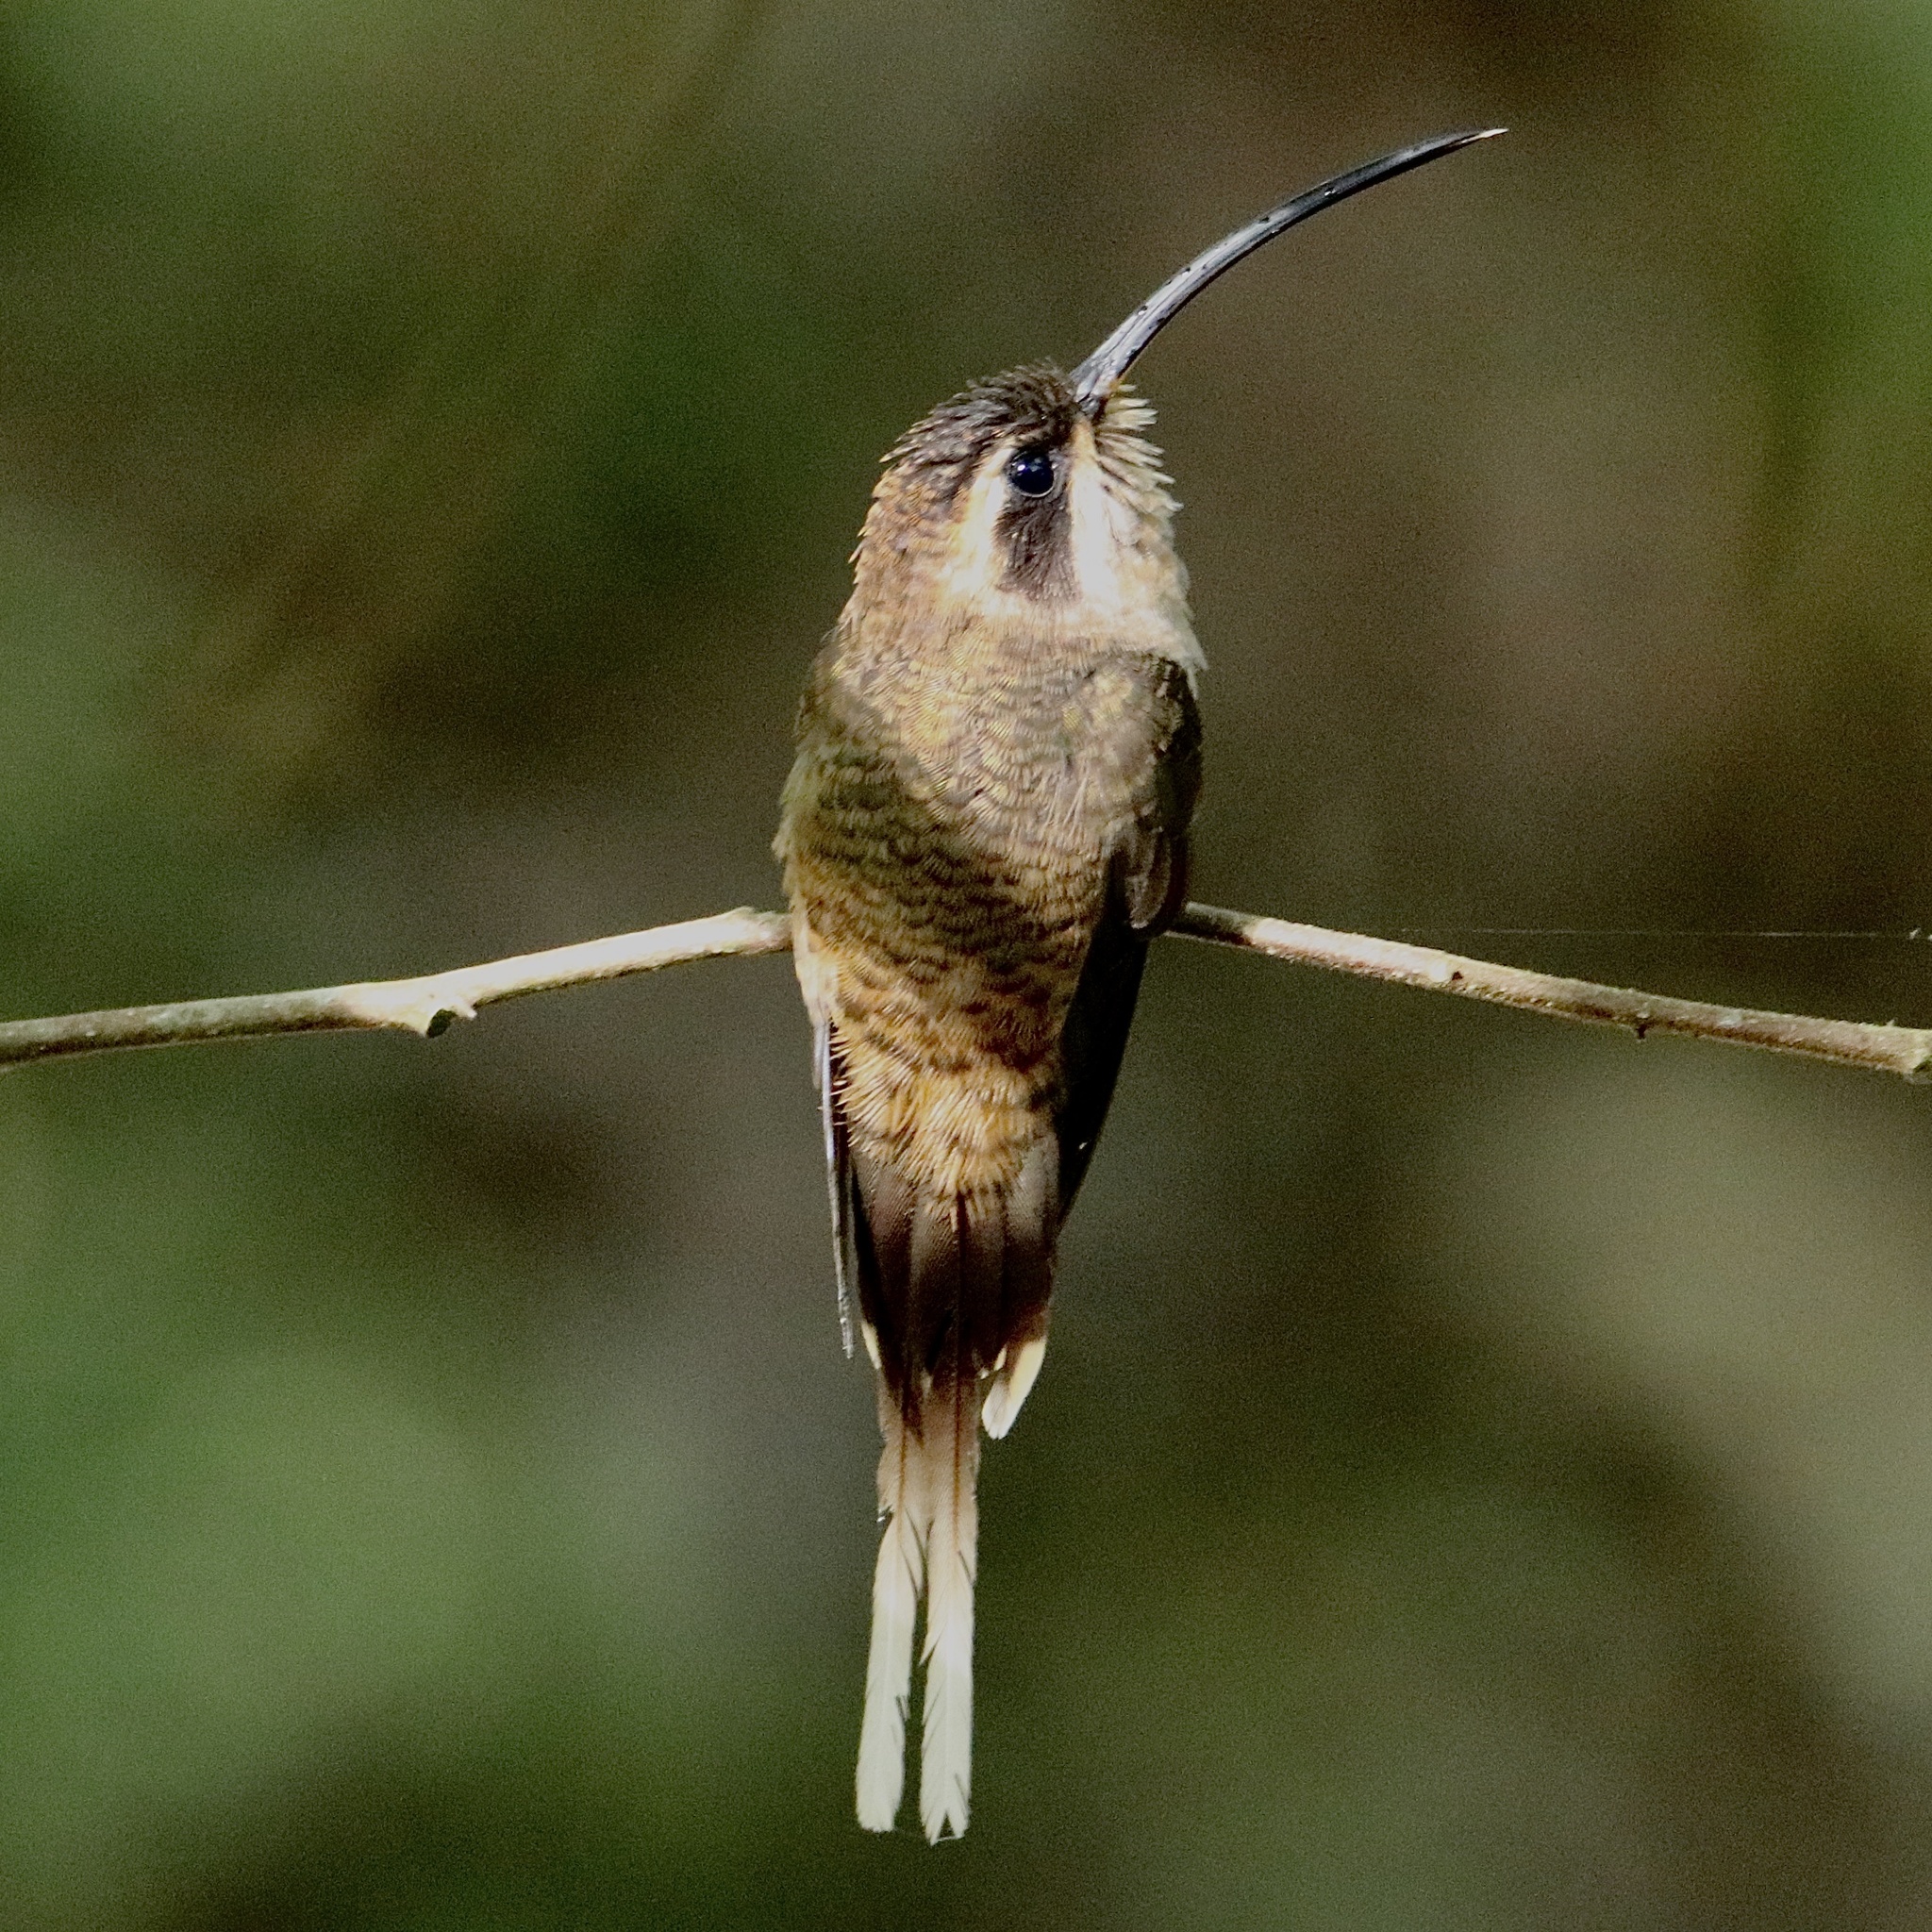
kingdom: Animalia
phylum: Chordata
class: Aves
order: Apodiformes
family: Trochilidae
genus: Phaethornis
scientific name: Phaethornis longirostris
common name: Long-billed hermit
